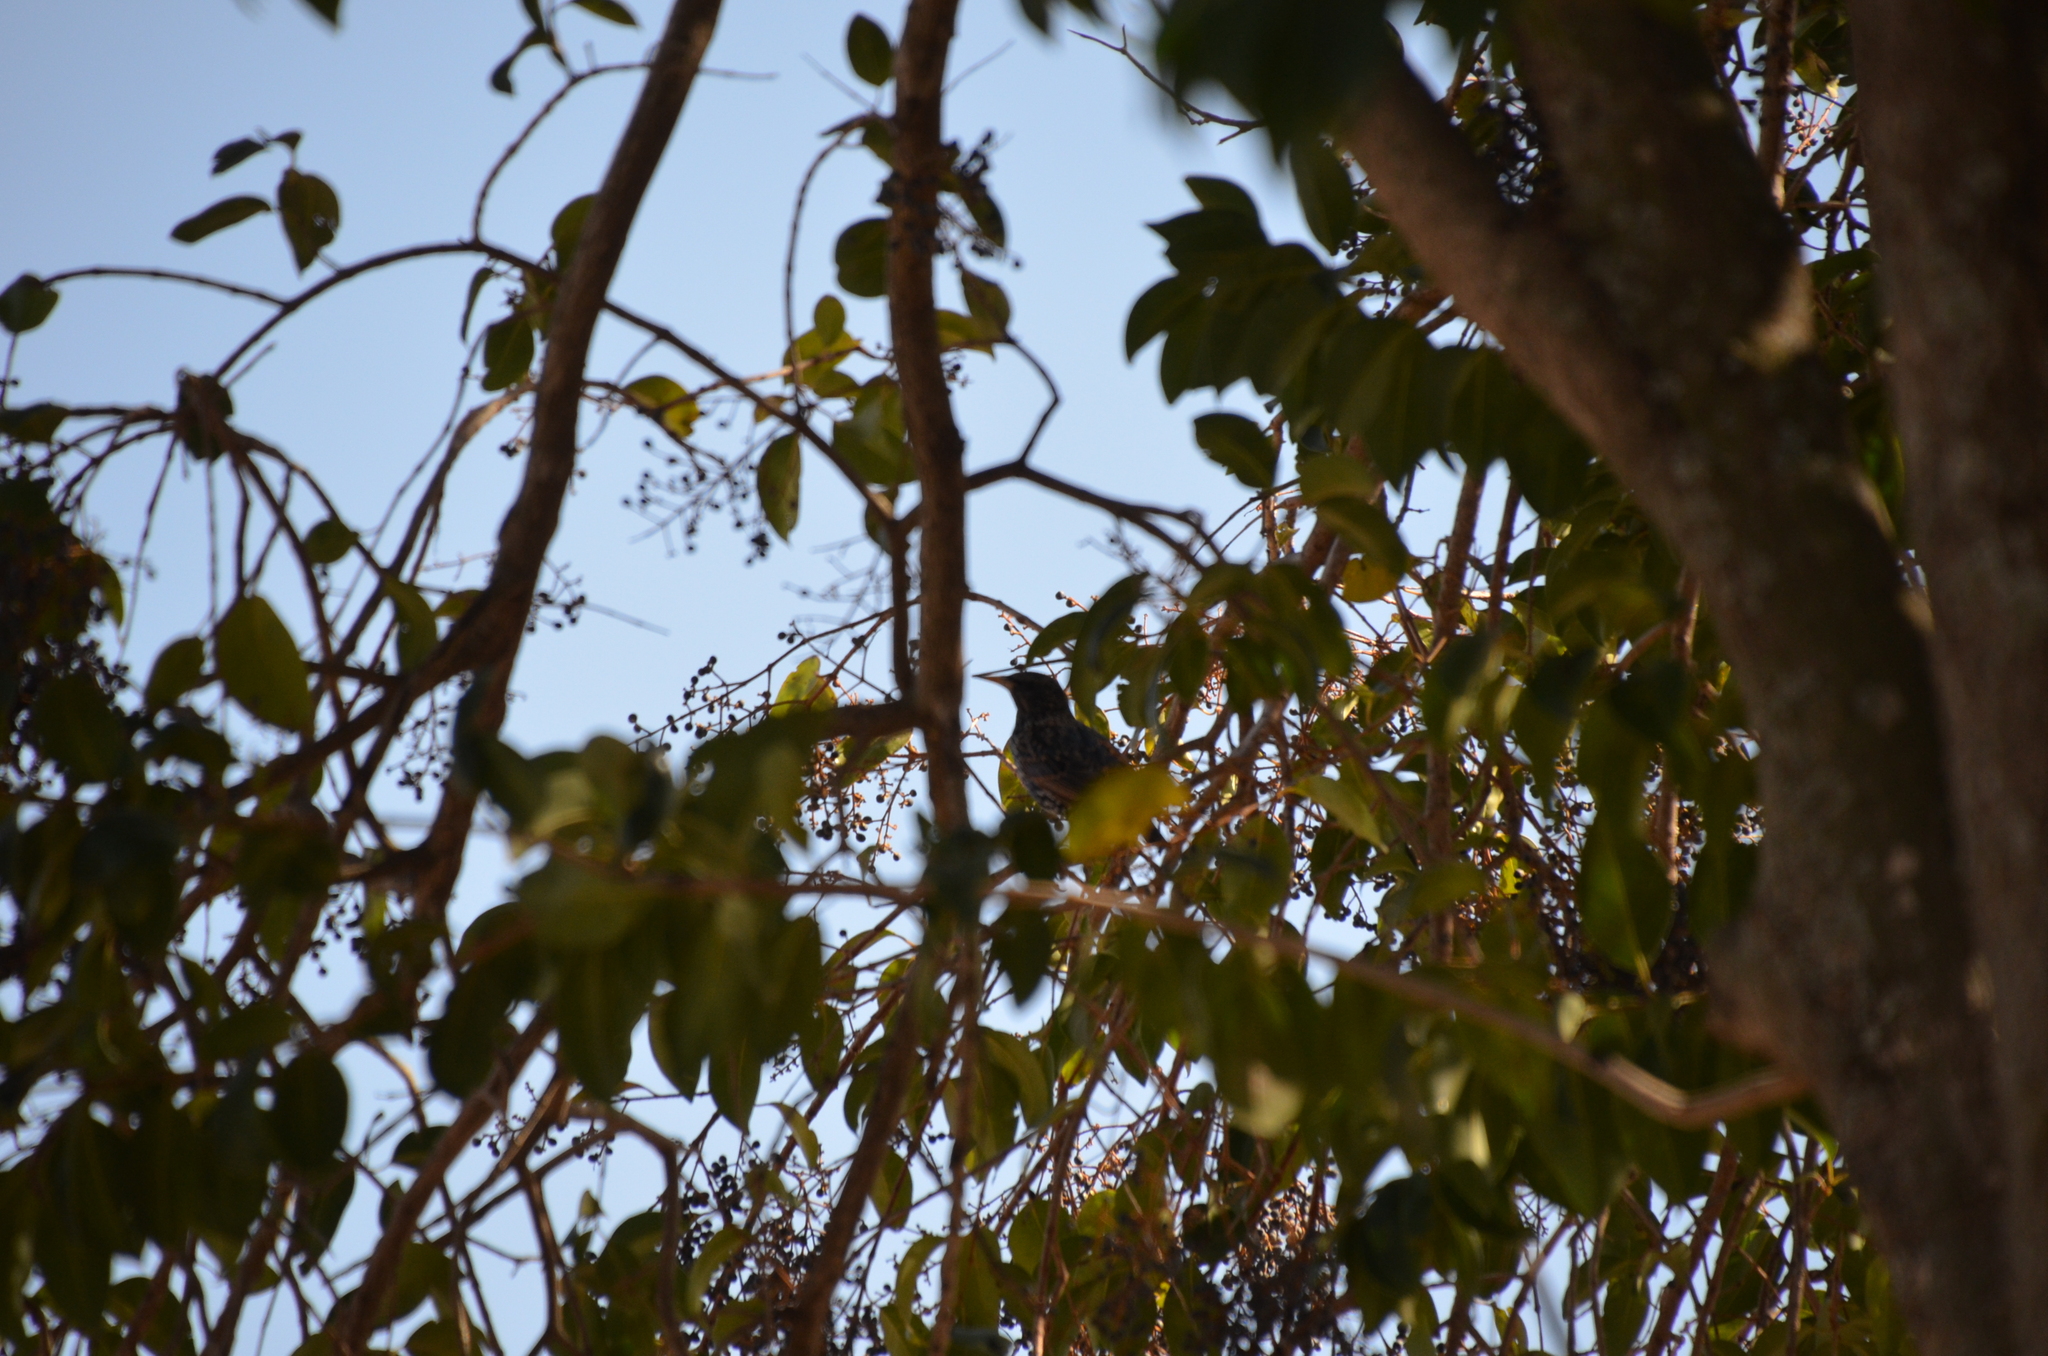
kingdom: Animalia
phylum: Chordata
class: Aves
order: Passeriformes
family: Sturnidae
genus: Sturnus
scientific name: Sturnus vulgaris
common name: Common starling
